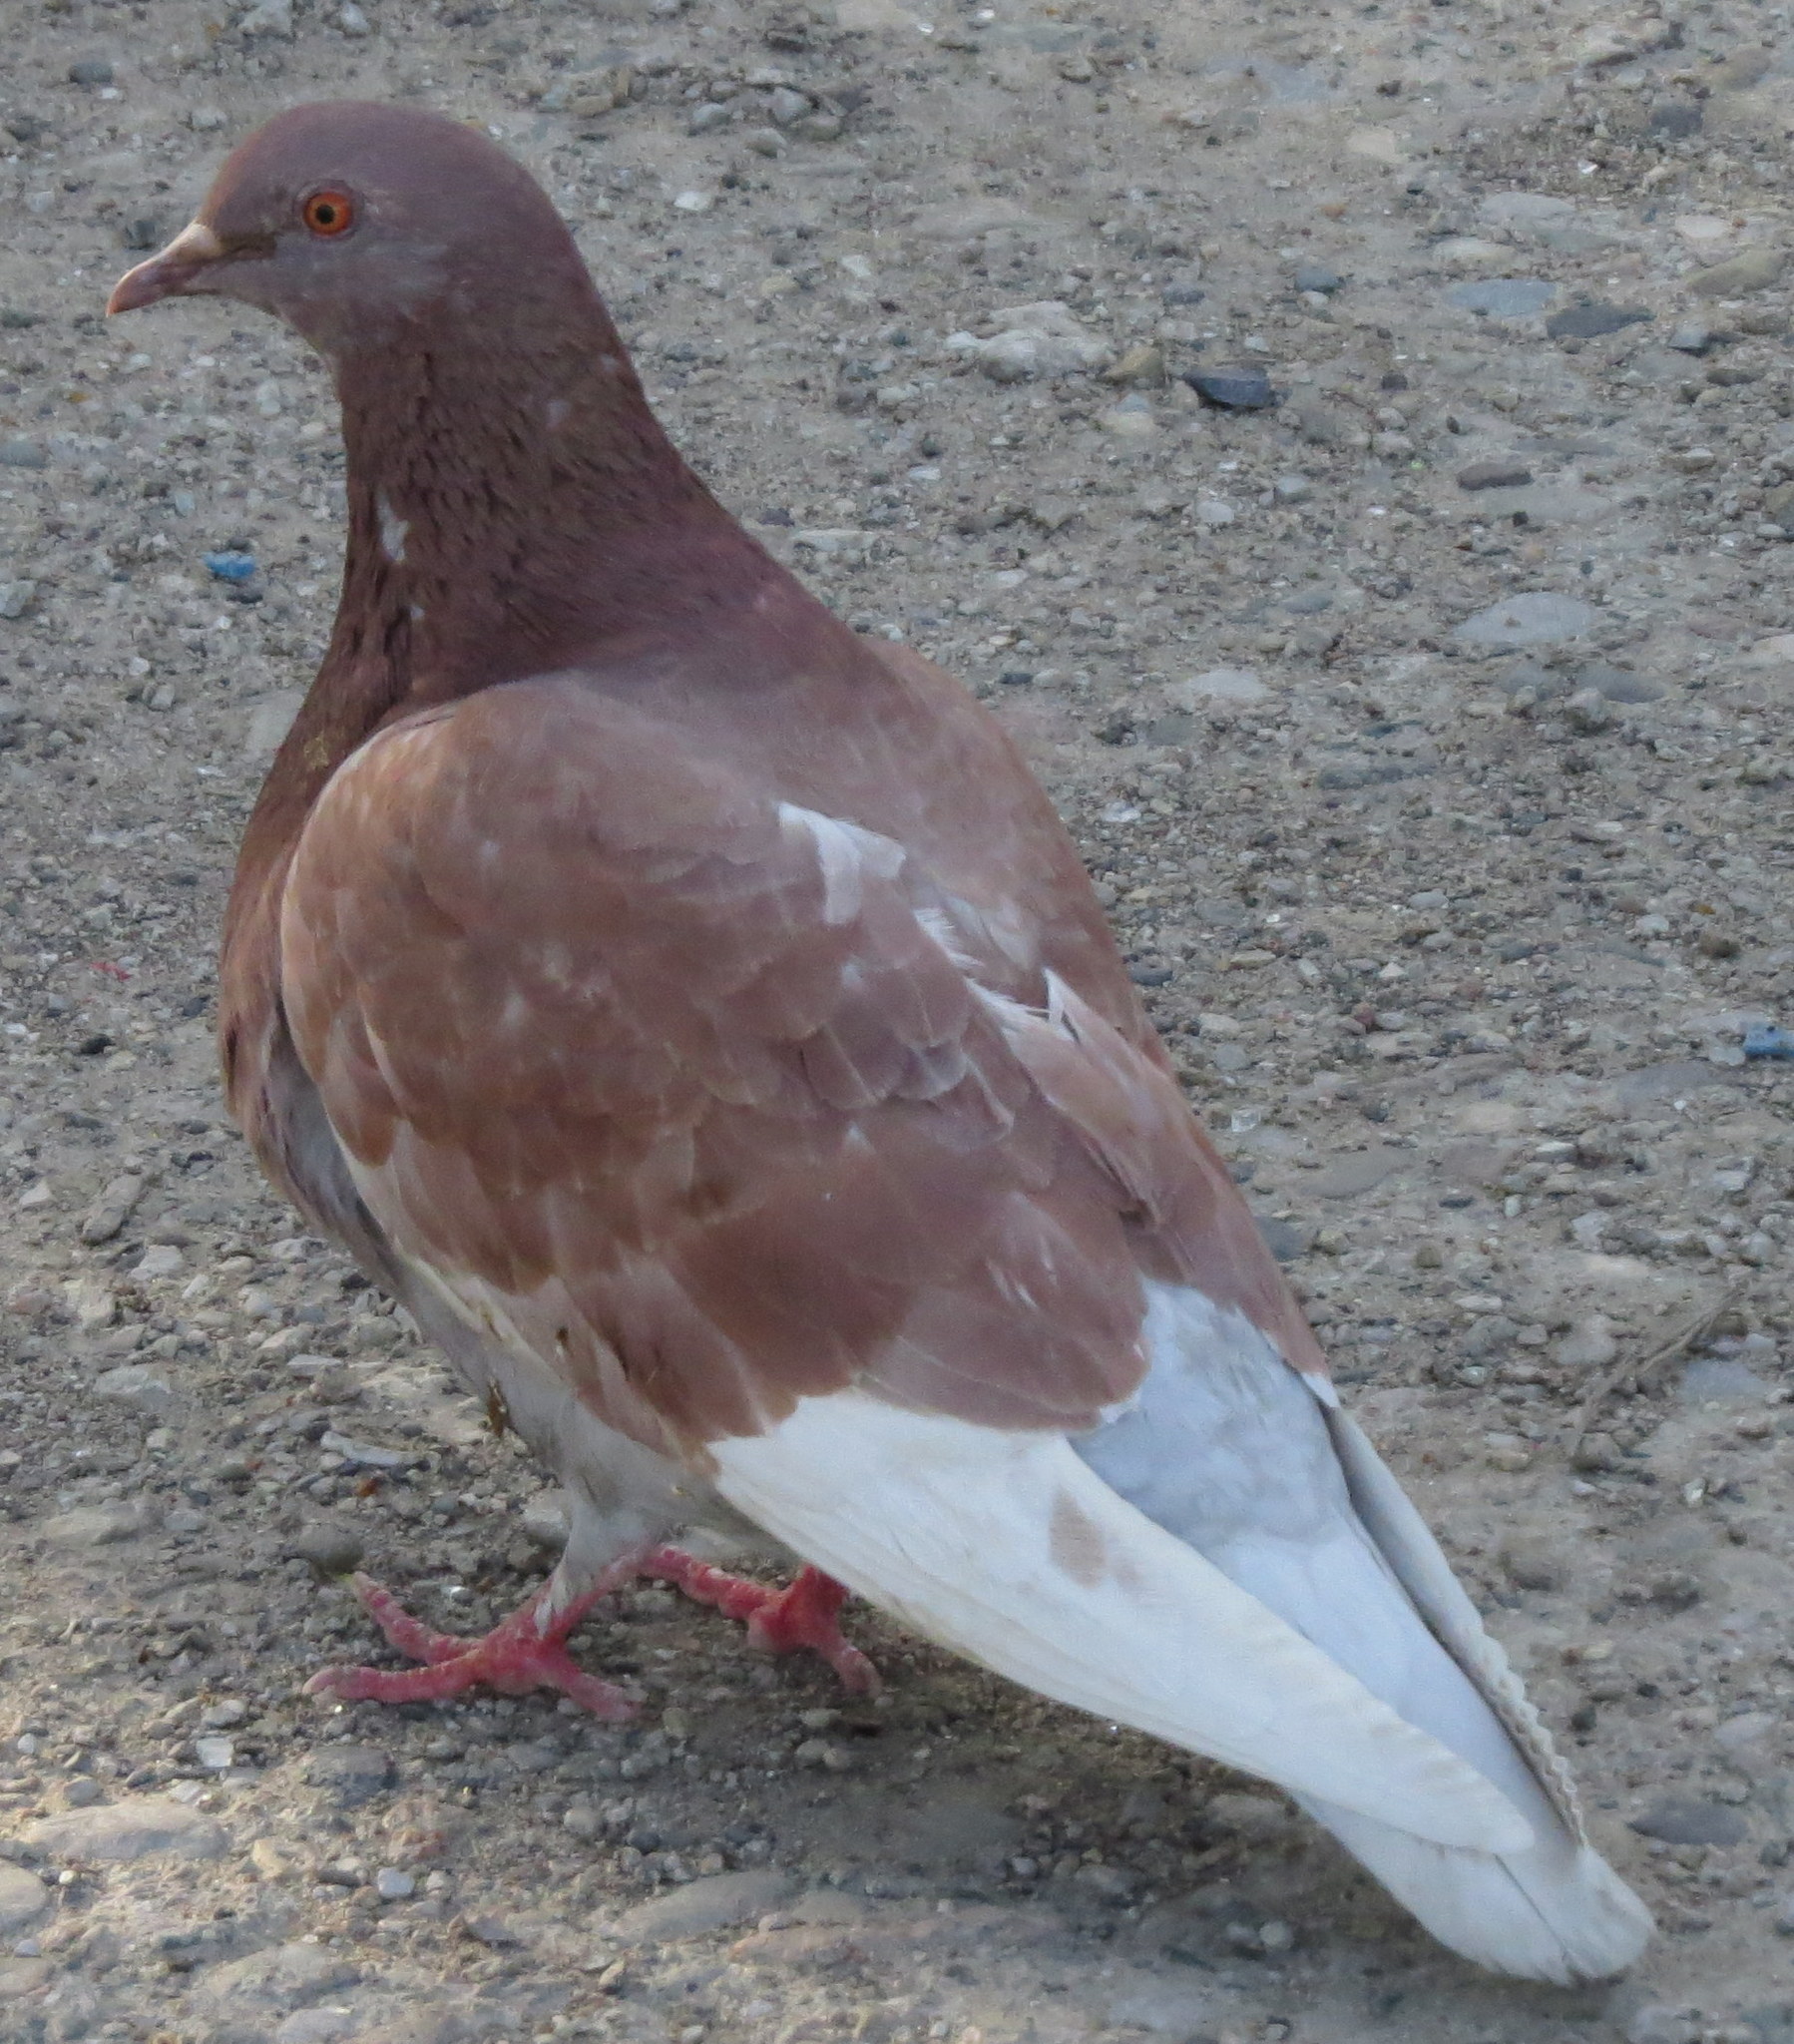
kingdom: Animalia
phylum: Chordata
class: Aves
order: Columbiformes
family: Columbidae
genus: Columba
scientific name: Columba livia
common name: Rock pigeon
